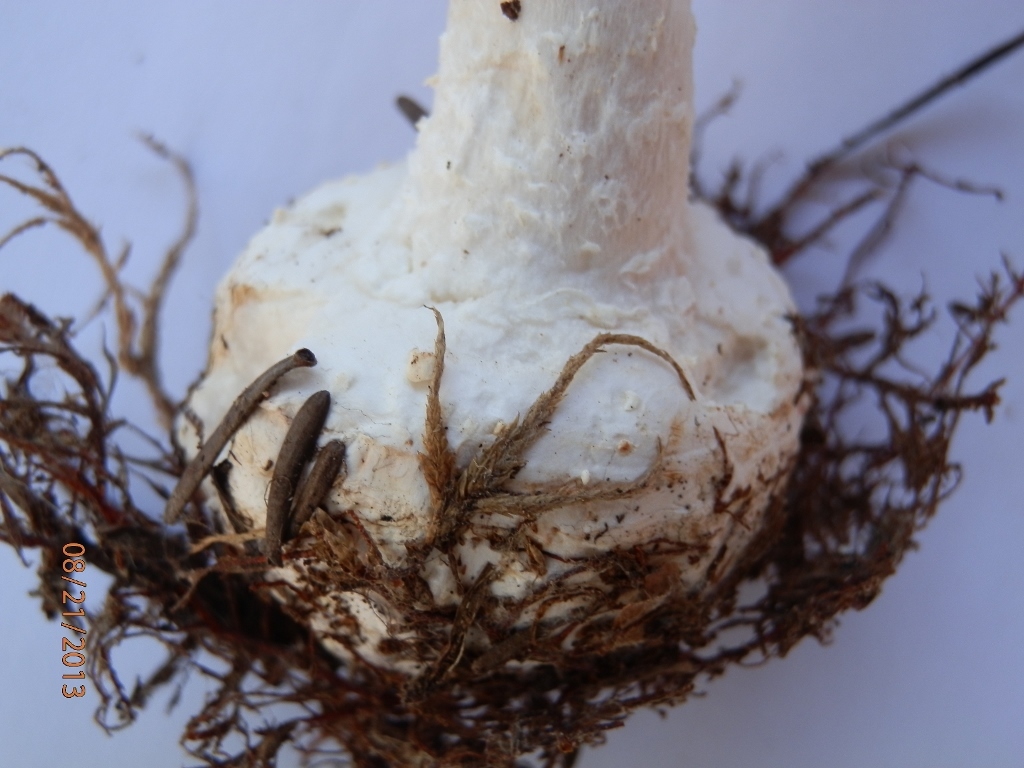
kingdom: Fungi
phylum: Basidiomycota
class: Agaricomycetes
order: Agaricales
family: Amanitaceae
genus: Amanita
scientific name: Amanita abrupta
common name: American abrupt-bulbed lepidella
